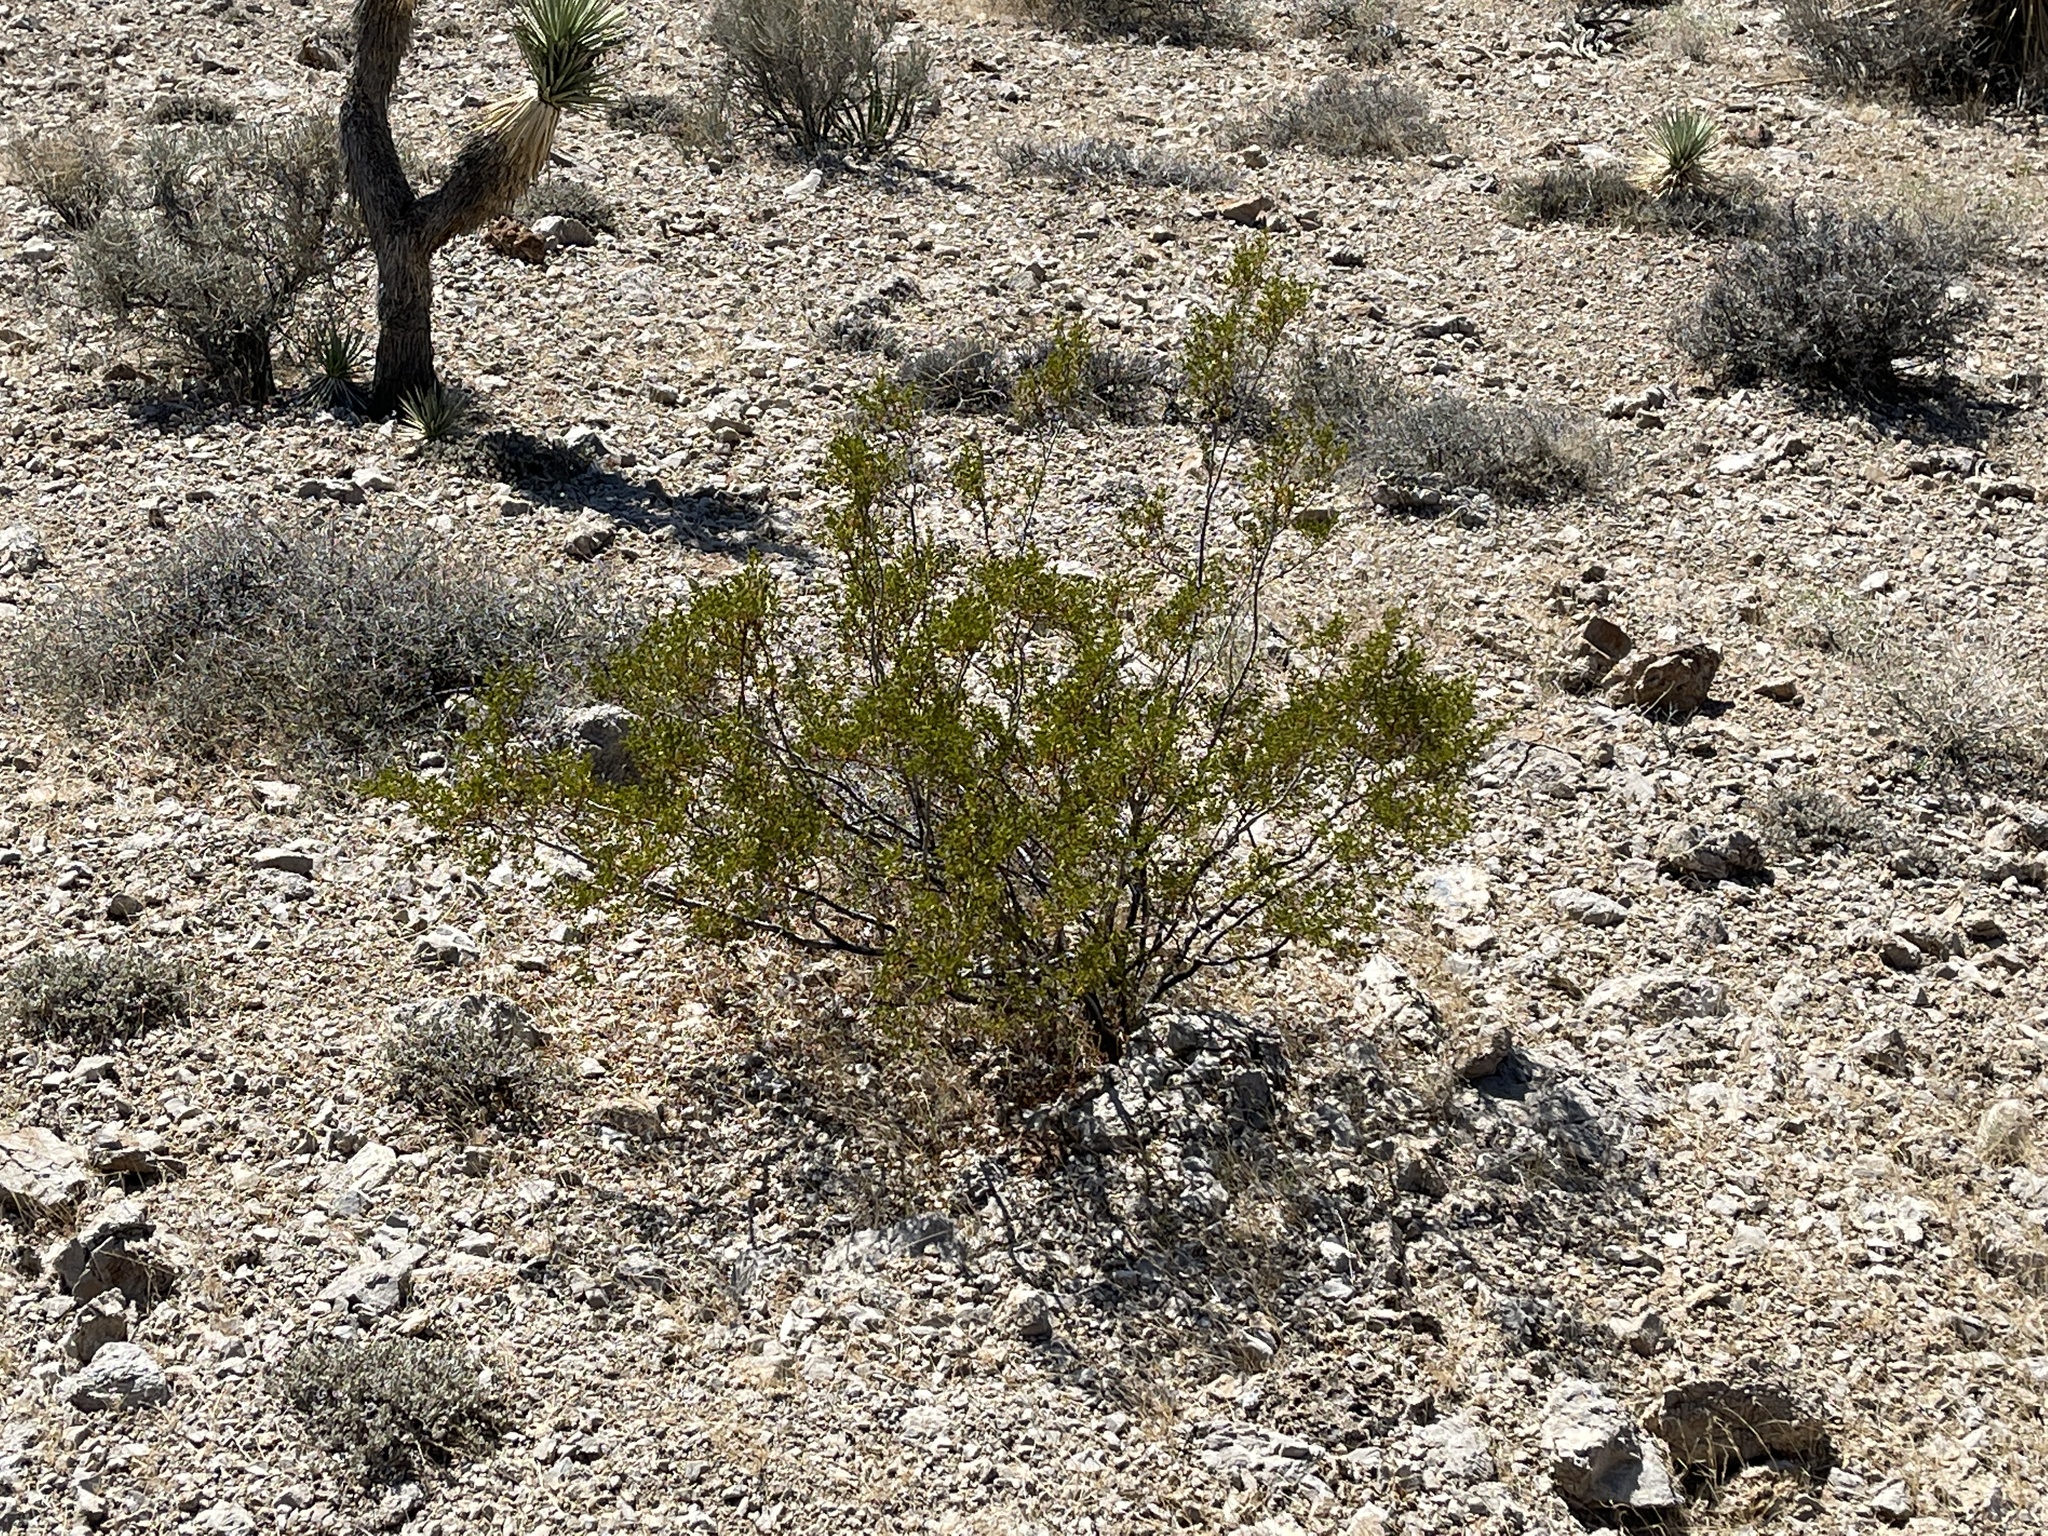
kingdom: Plantae
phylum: Tracheophyta
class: Magnoliopsida
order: Zygophyllales
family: Zygophyllaceae
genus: Larrea
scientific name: Larrea tridentata
